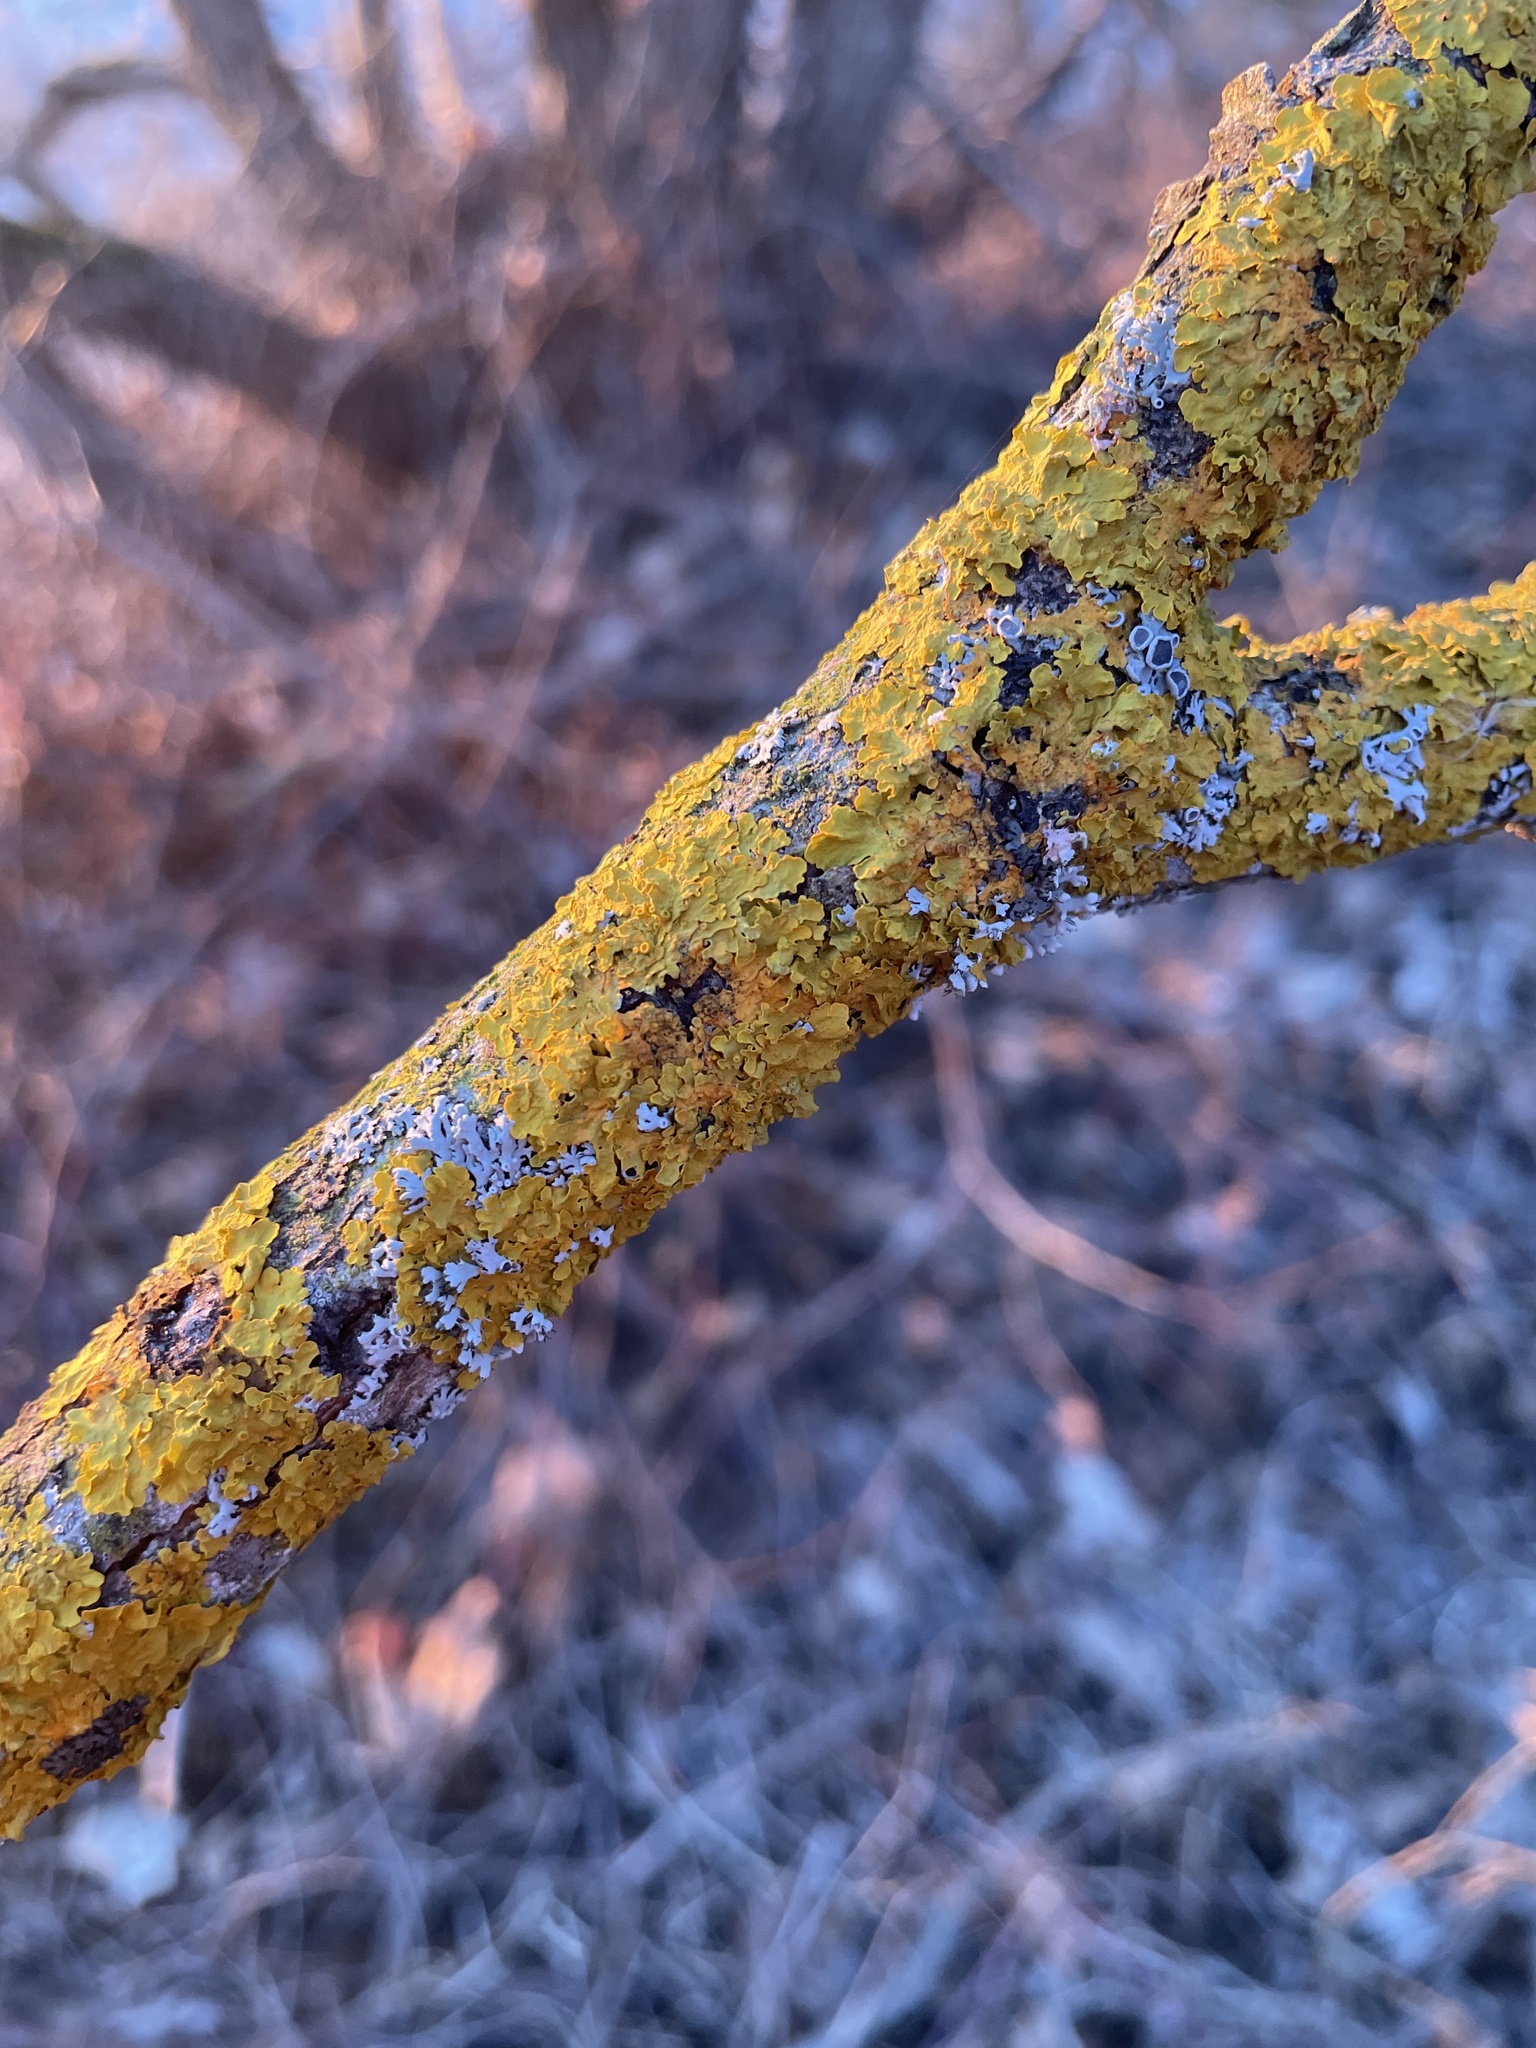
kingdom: Fungi
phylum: Ascomycota
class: Lecanoromycetes
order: Teloschistales
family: Teloschistaceae
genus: Xanthoria
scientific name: Xanthoria parietina
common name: Common orange lichen
